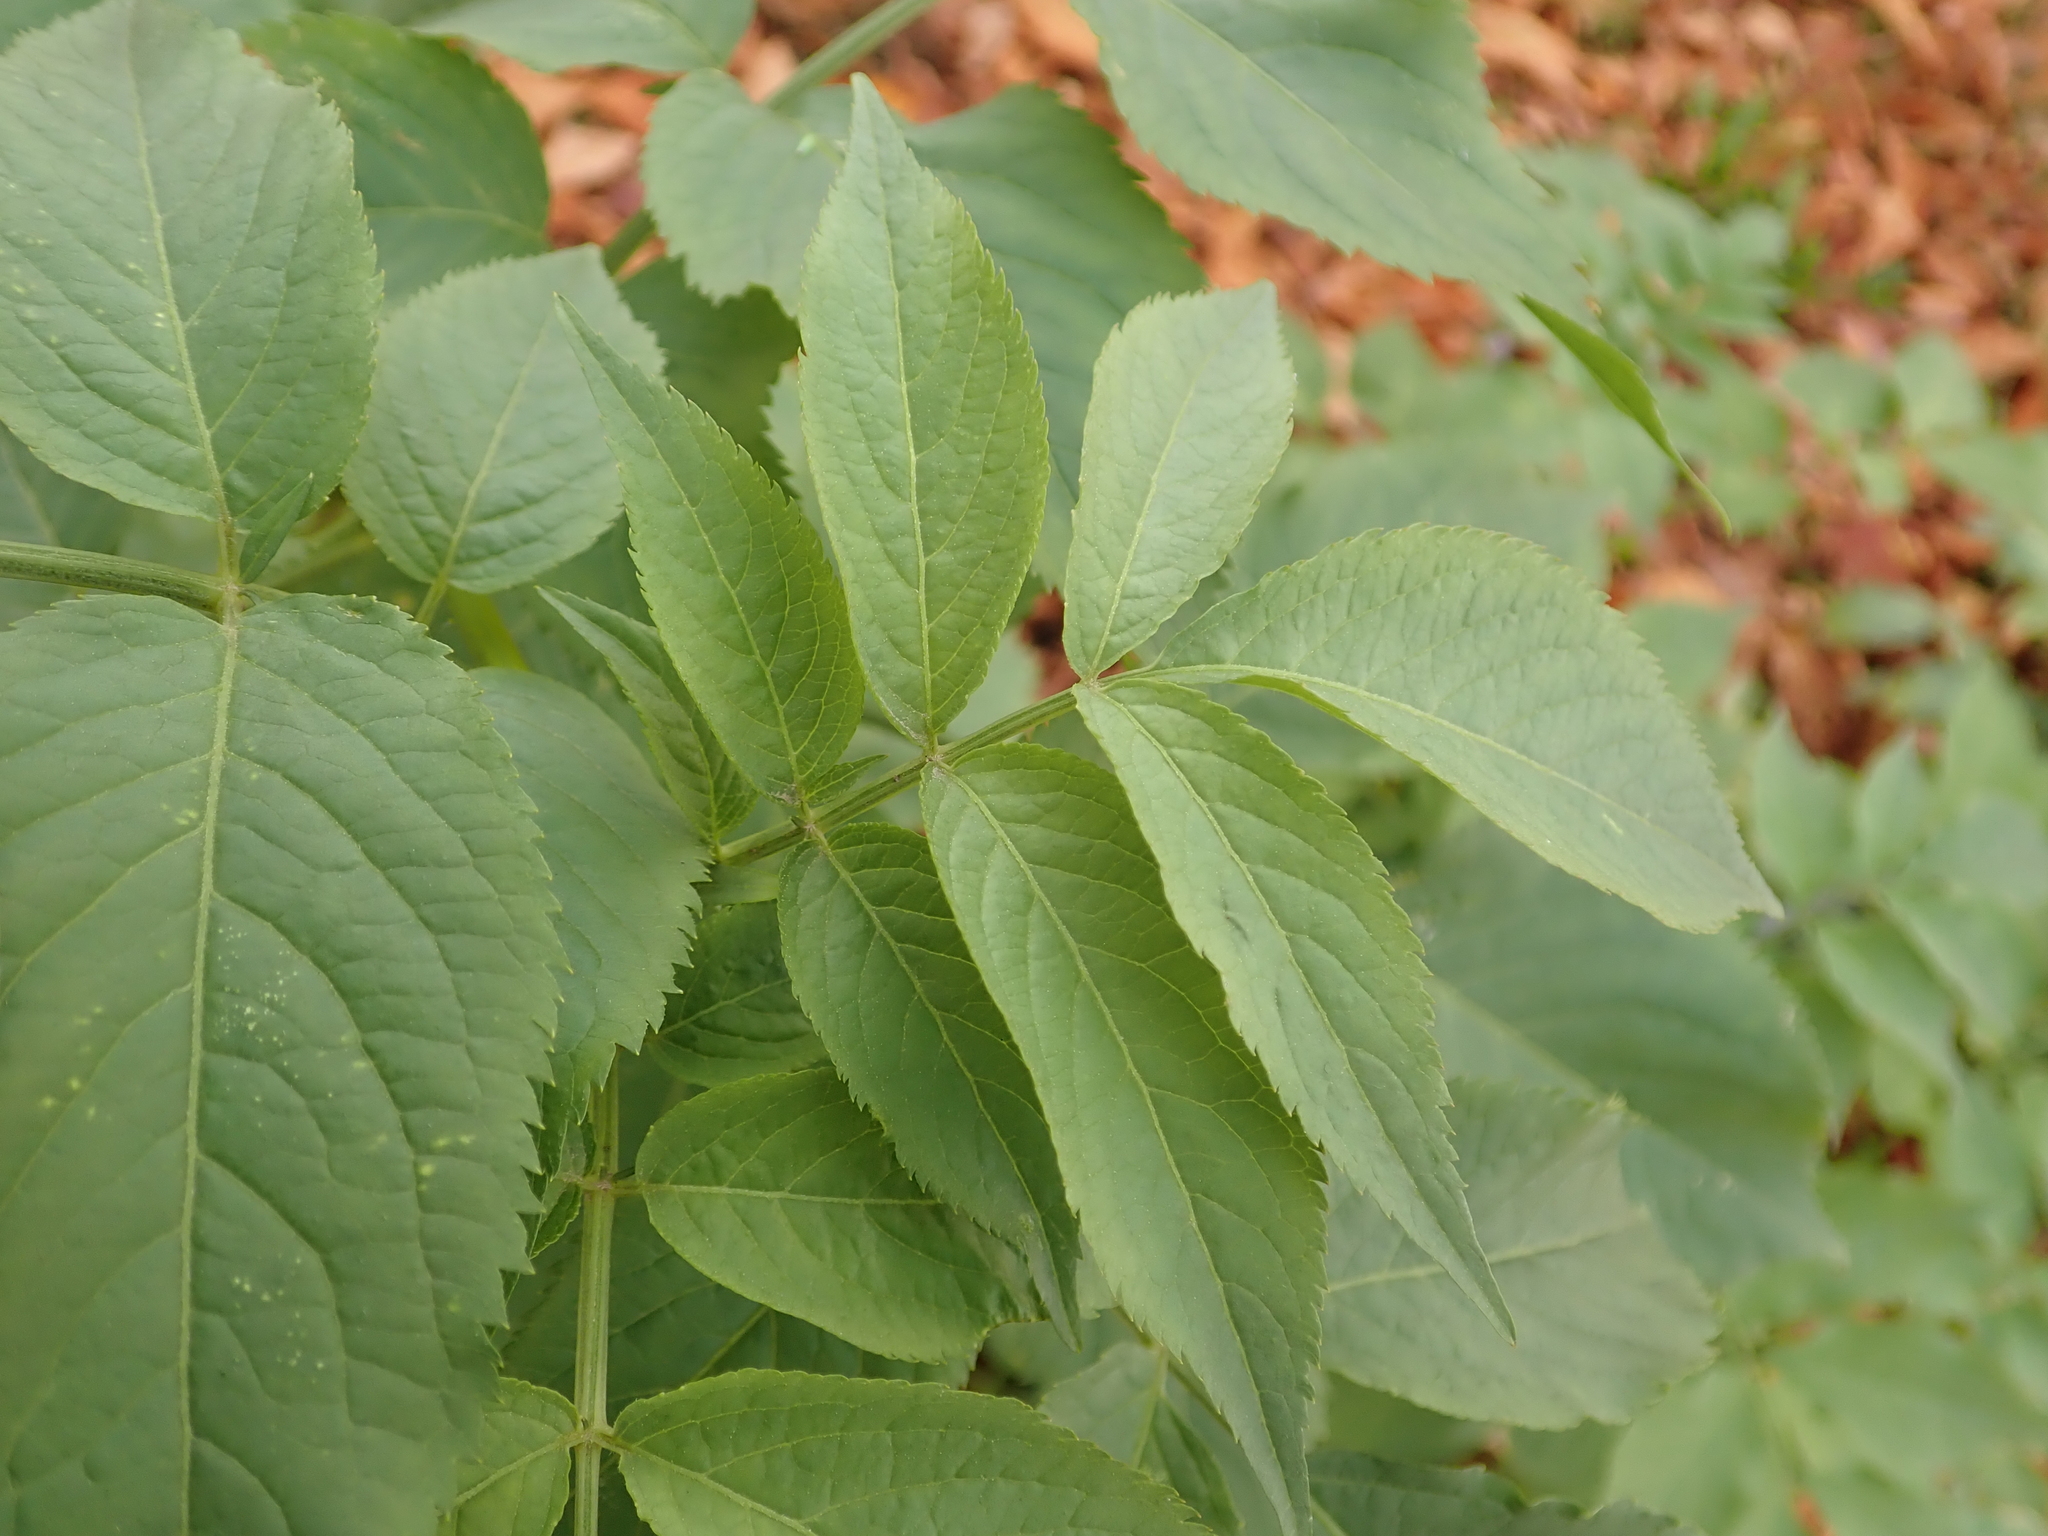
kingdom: Plantae
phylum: Tracheophyta
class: Magnoliopsida
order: Dipsacales
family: Viburnaceae
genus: Sambucus
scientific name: Sambucus nigra
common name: Elder
